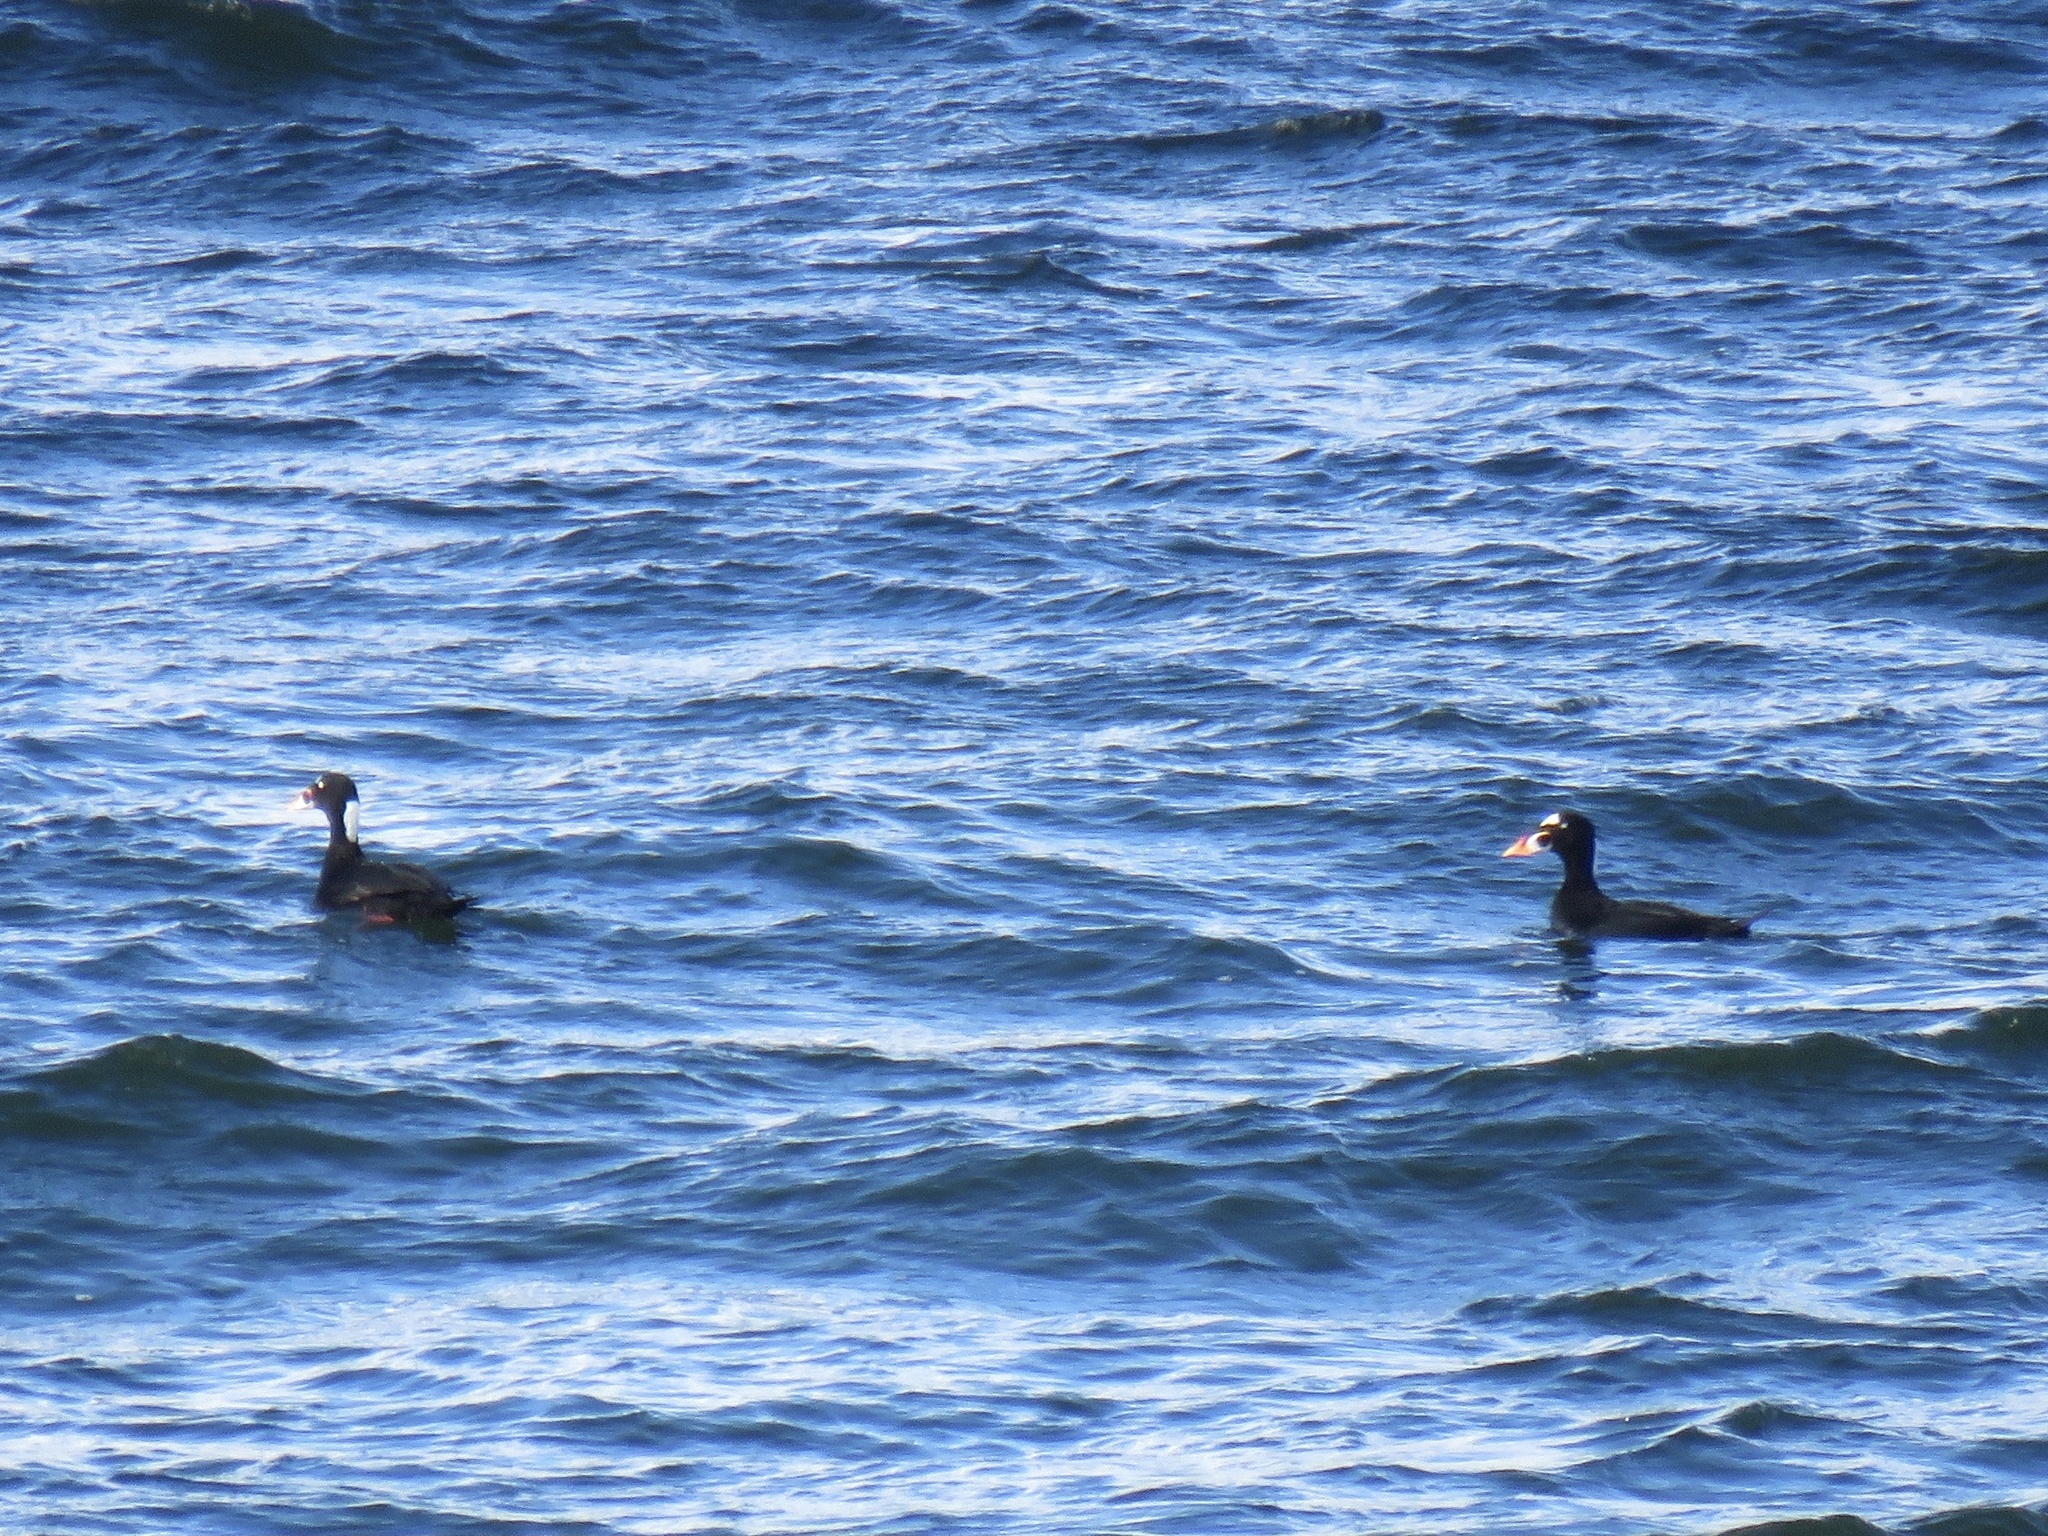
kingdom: Animalia
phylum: Chordata
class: Aves
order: Anseriformes
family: Anatidae
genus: Melanitta
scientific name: Melanitta perspicillata
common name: Surf scoter
